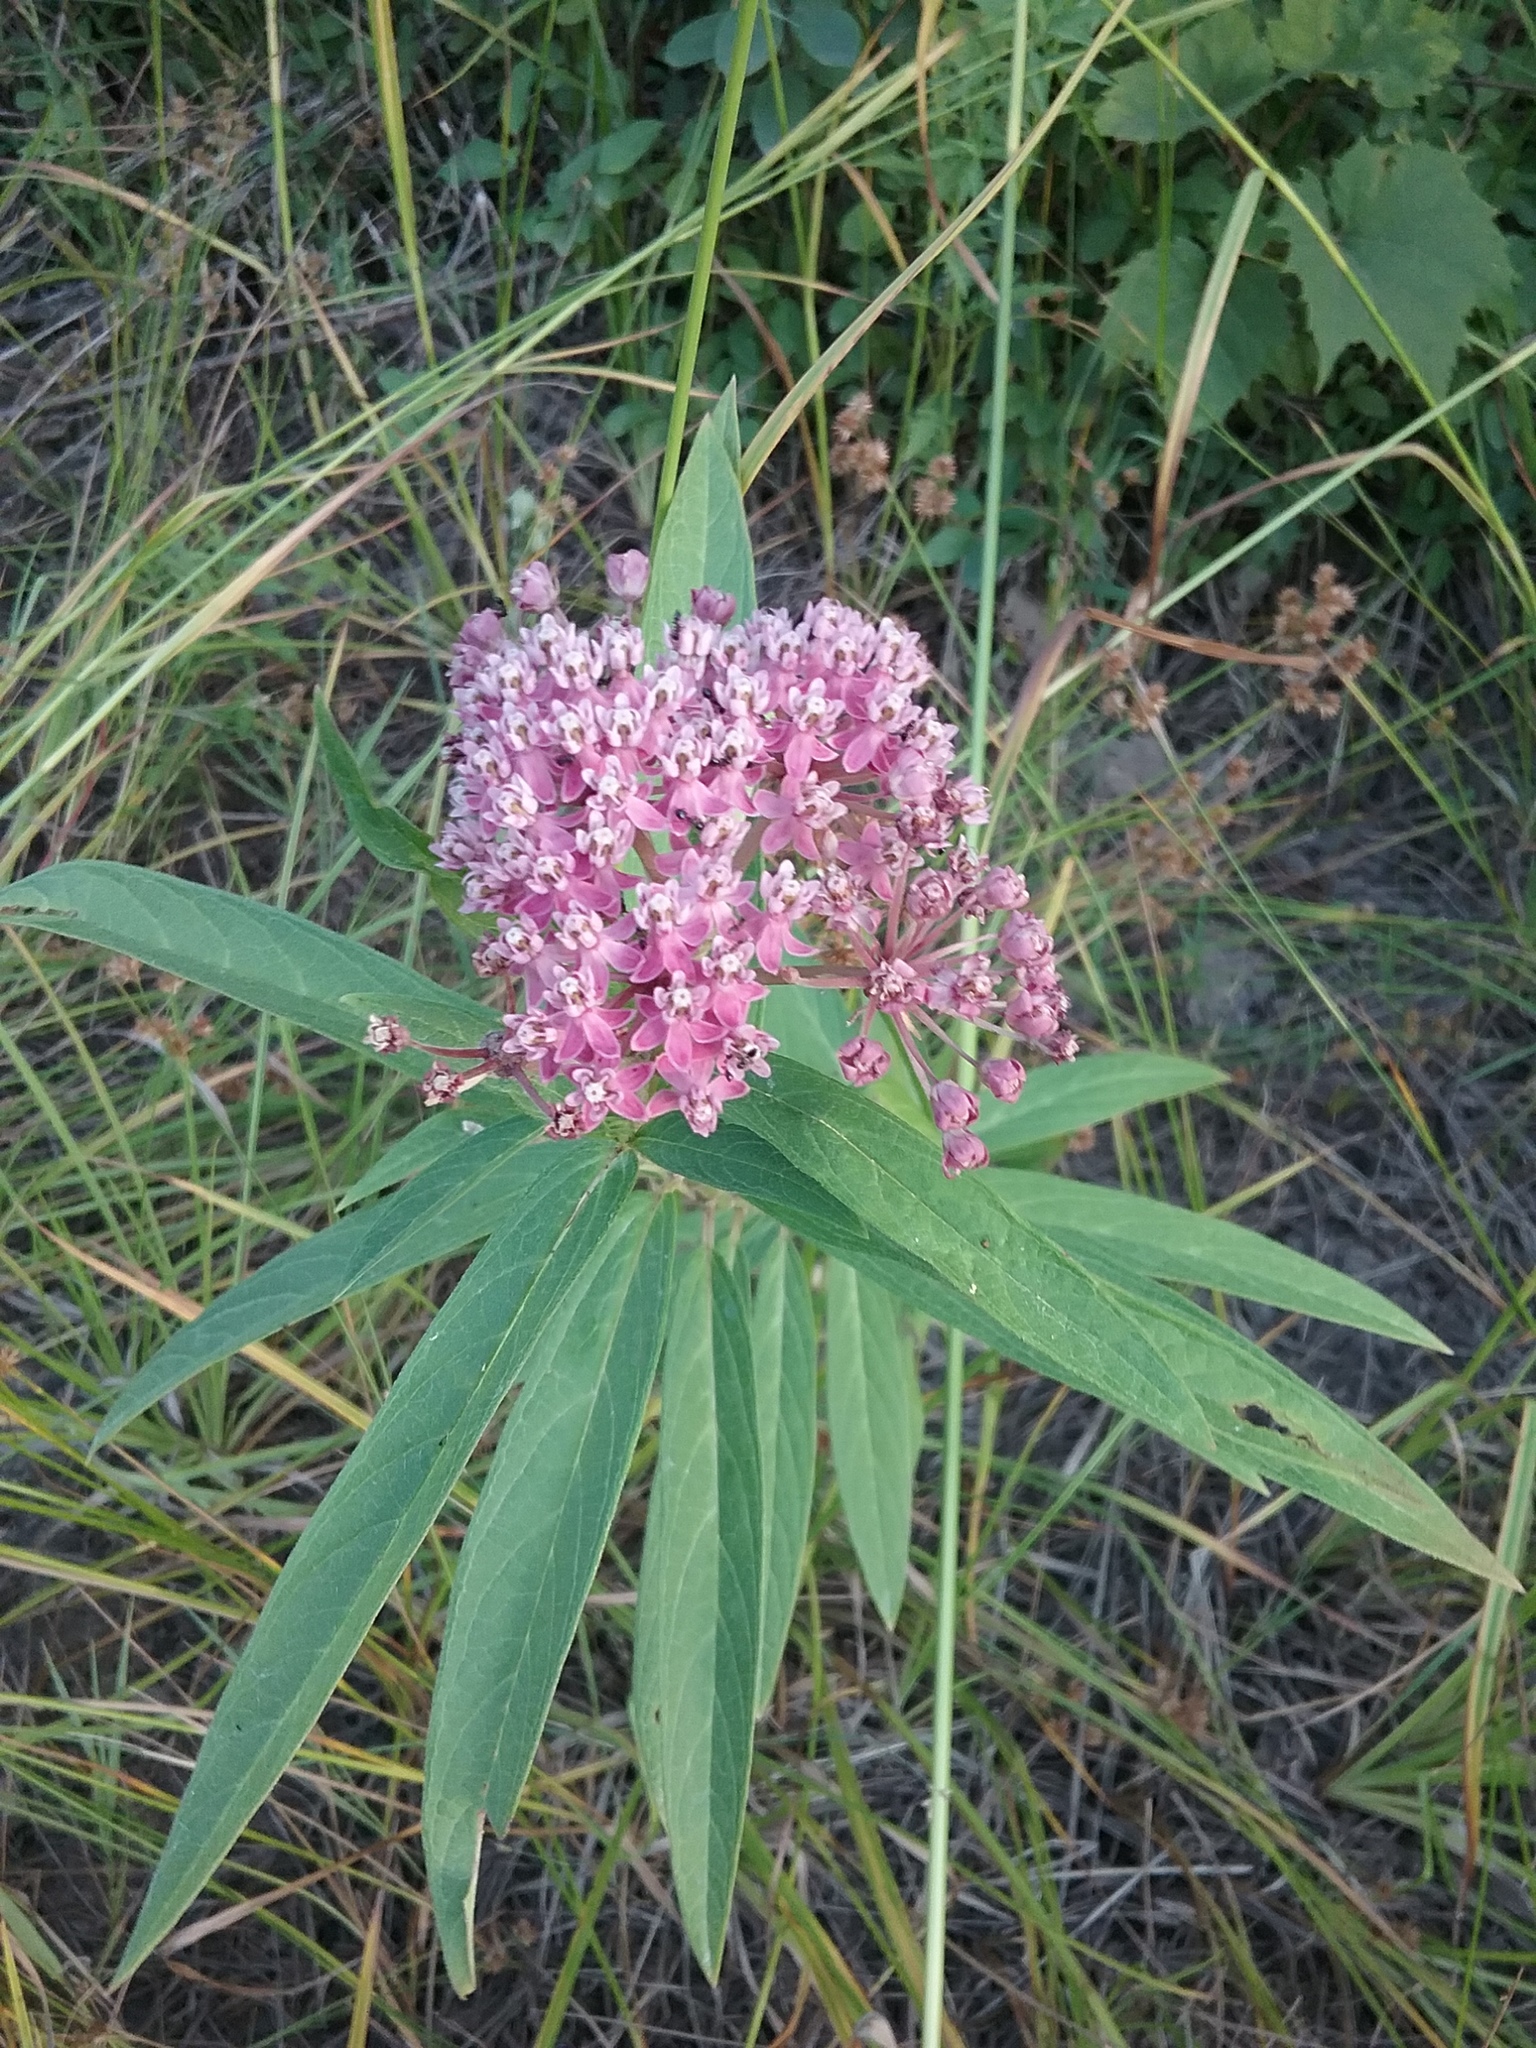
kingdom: Plantae
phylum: Tracheophyta
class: Magnoliopsida
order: Gentianales
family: Apocynaceae
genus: Asclepias
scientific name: Asclepias incarnata
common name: Swamp milkweed
